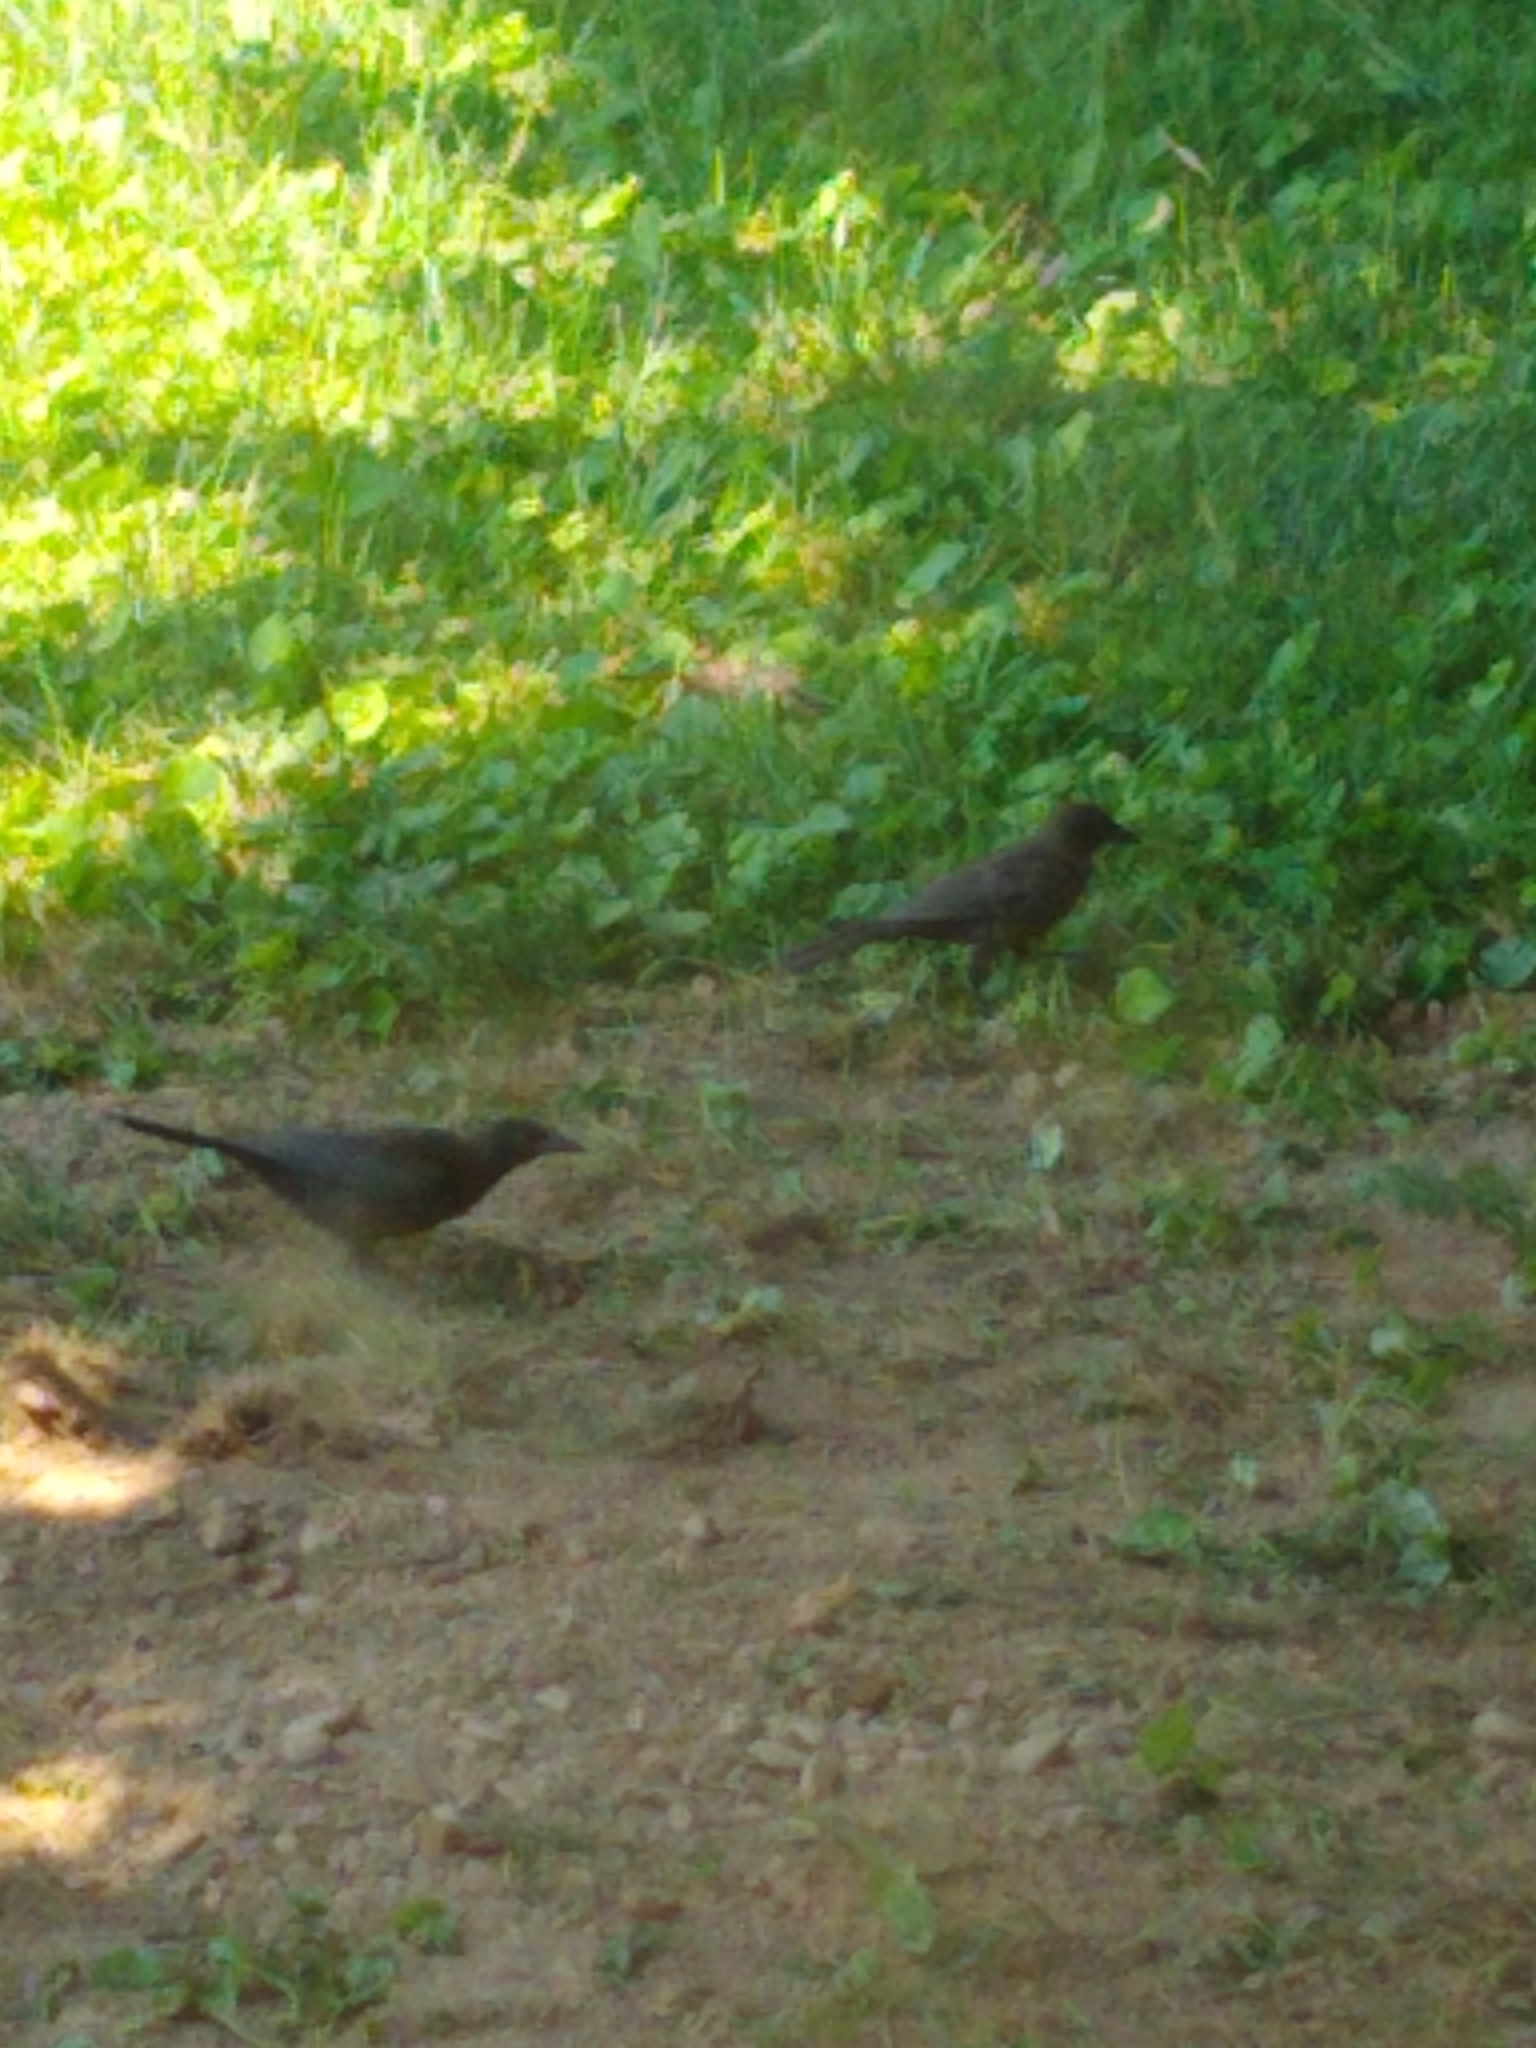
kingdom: Animalia
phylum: Chordata
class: Aves
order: Passeriformes
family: Icteridae
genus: Quiscalus
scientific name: Quiscalus quiscula
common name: Common grackle
